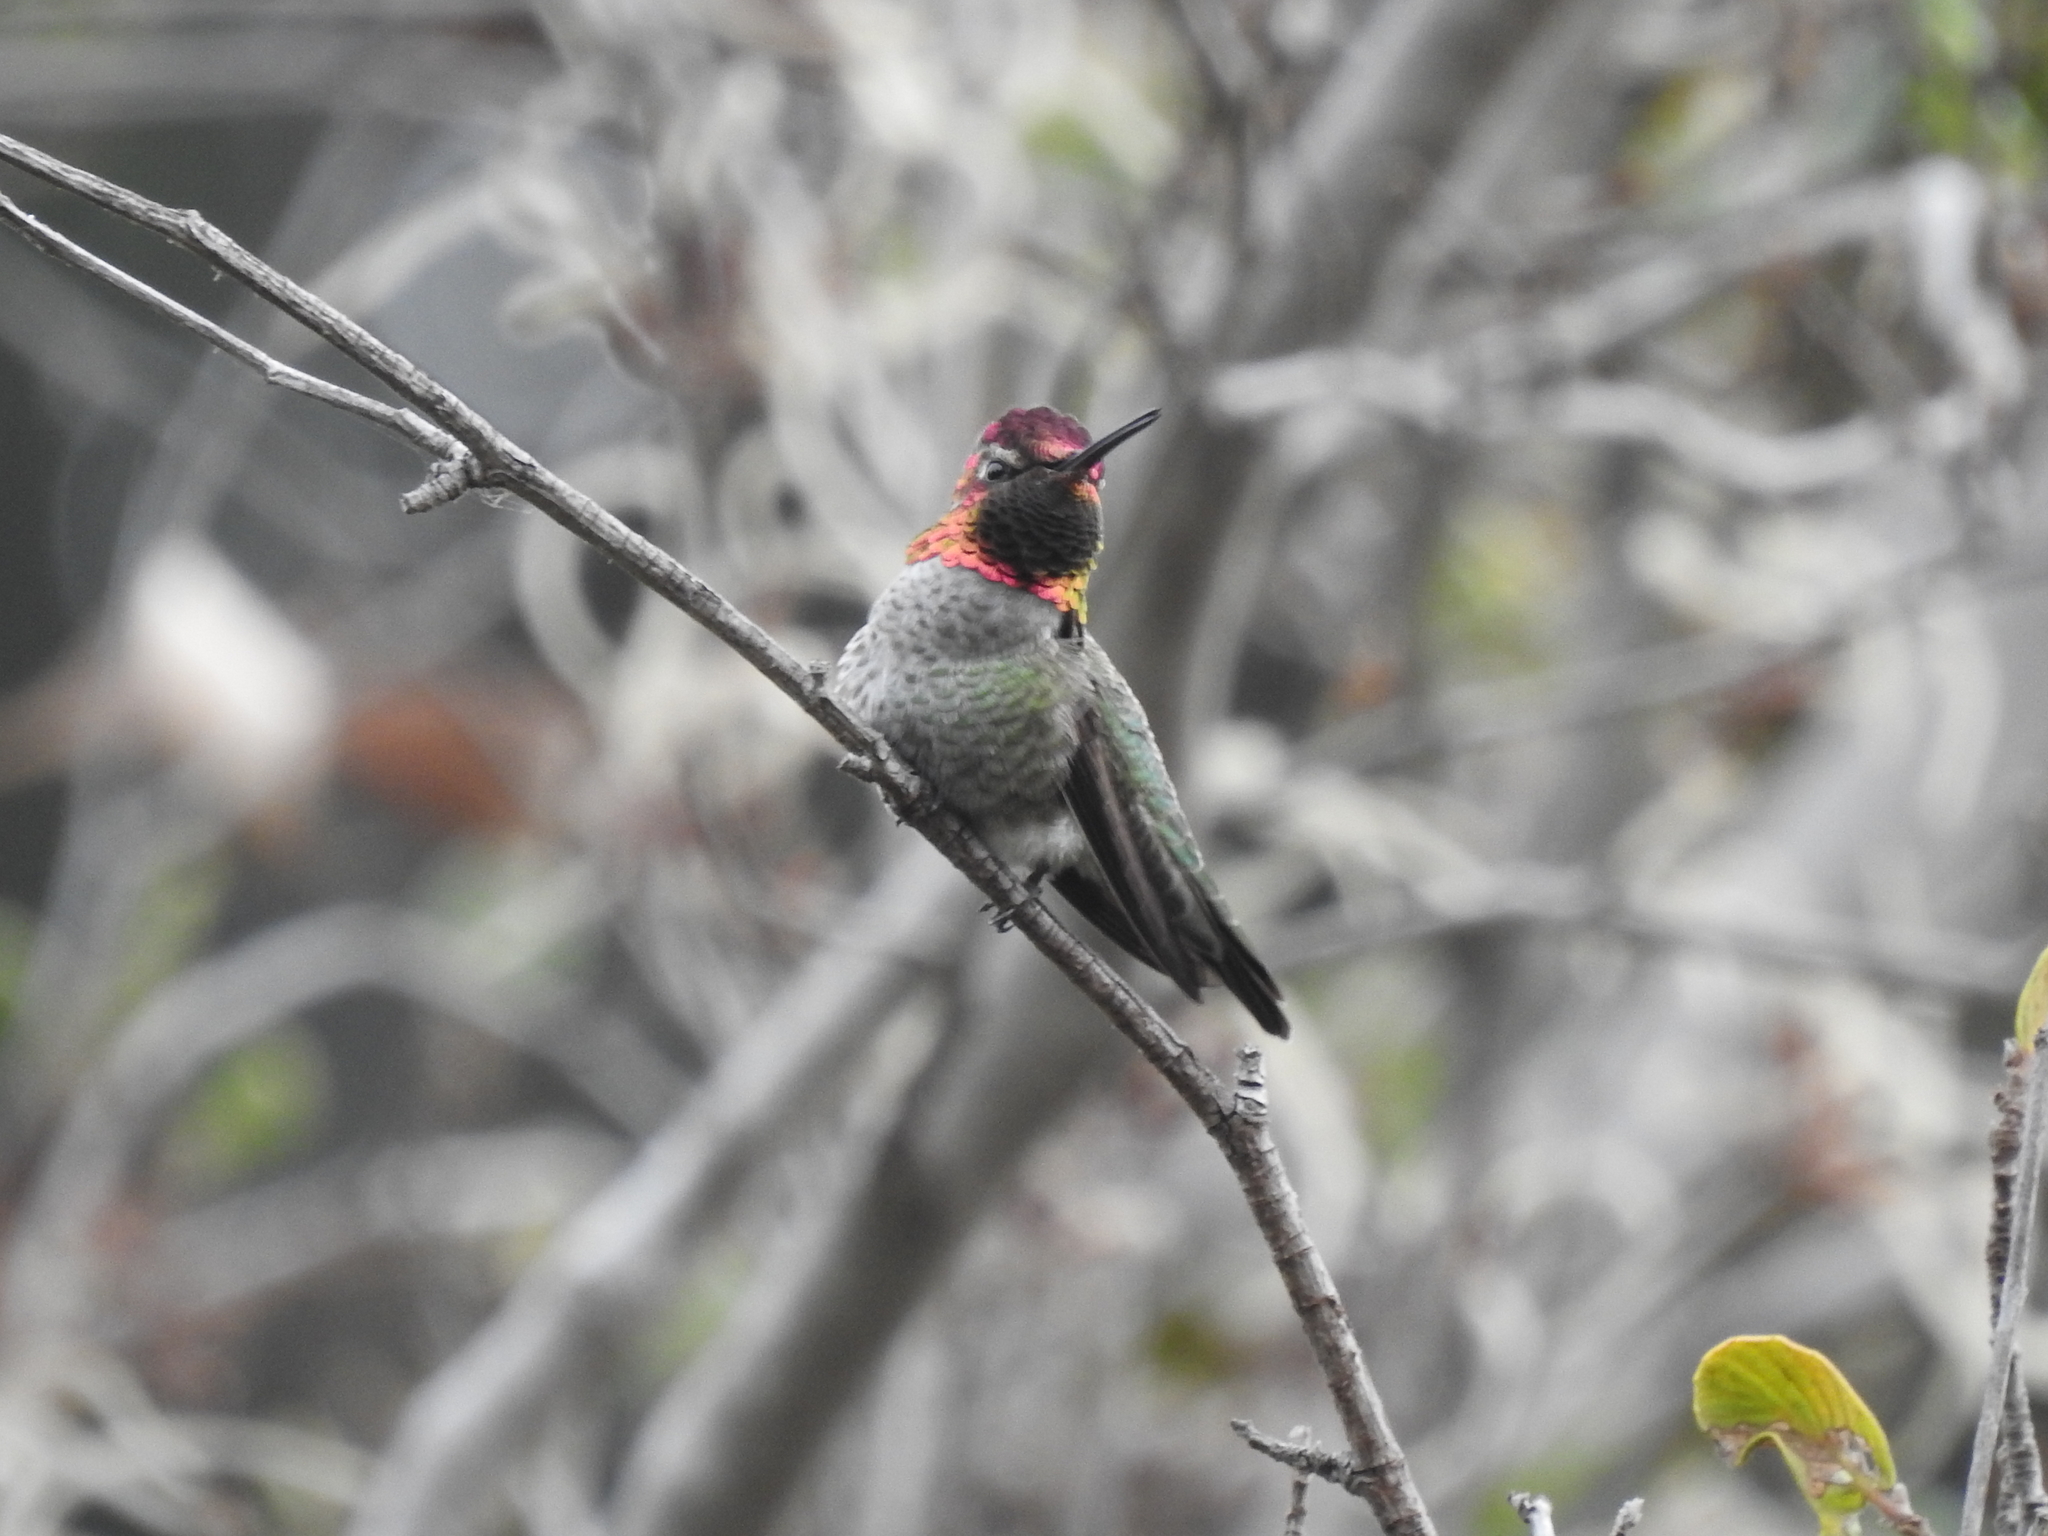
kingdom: Animalia
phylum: Chordata
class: Aves
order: Apodiformes
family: Trochilidae
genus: Calypte
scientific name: Calypte anna
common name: Anna's hummingbird
